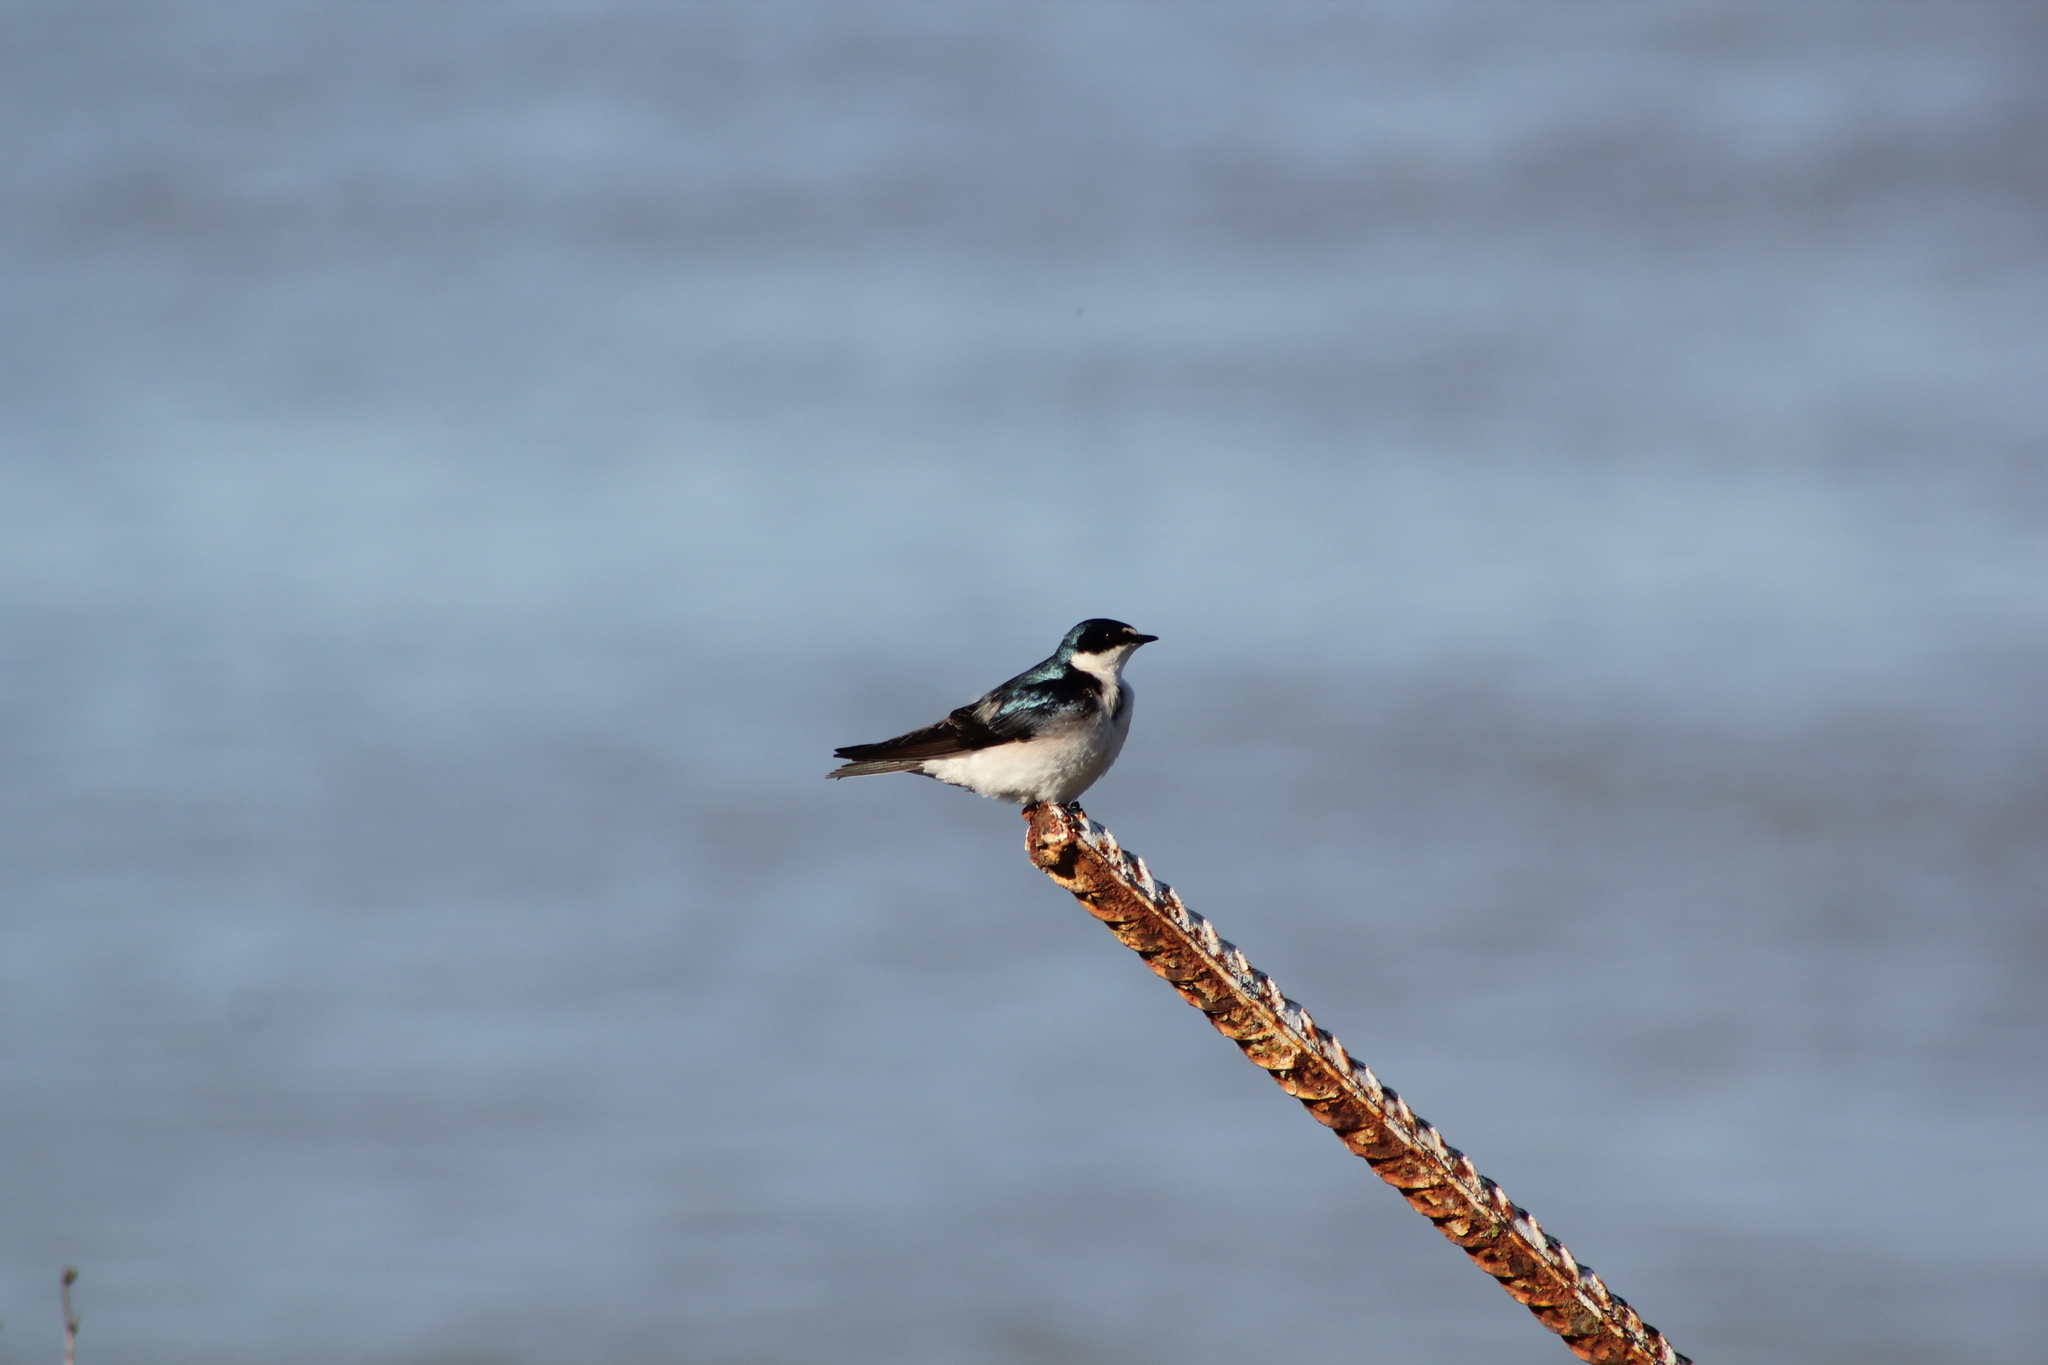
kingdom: Animalia
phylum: Chordata
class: Aves
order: Passeriformes
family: Hirundinidae
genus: Tachycineta
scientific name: Tachycineta leucorrhoa
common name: White-rumped swallow
